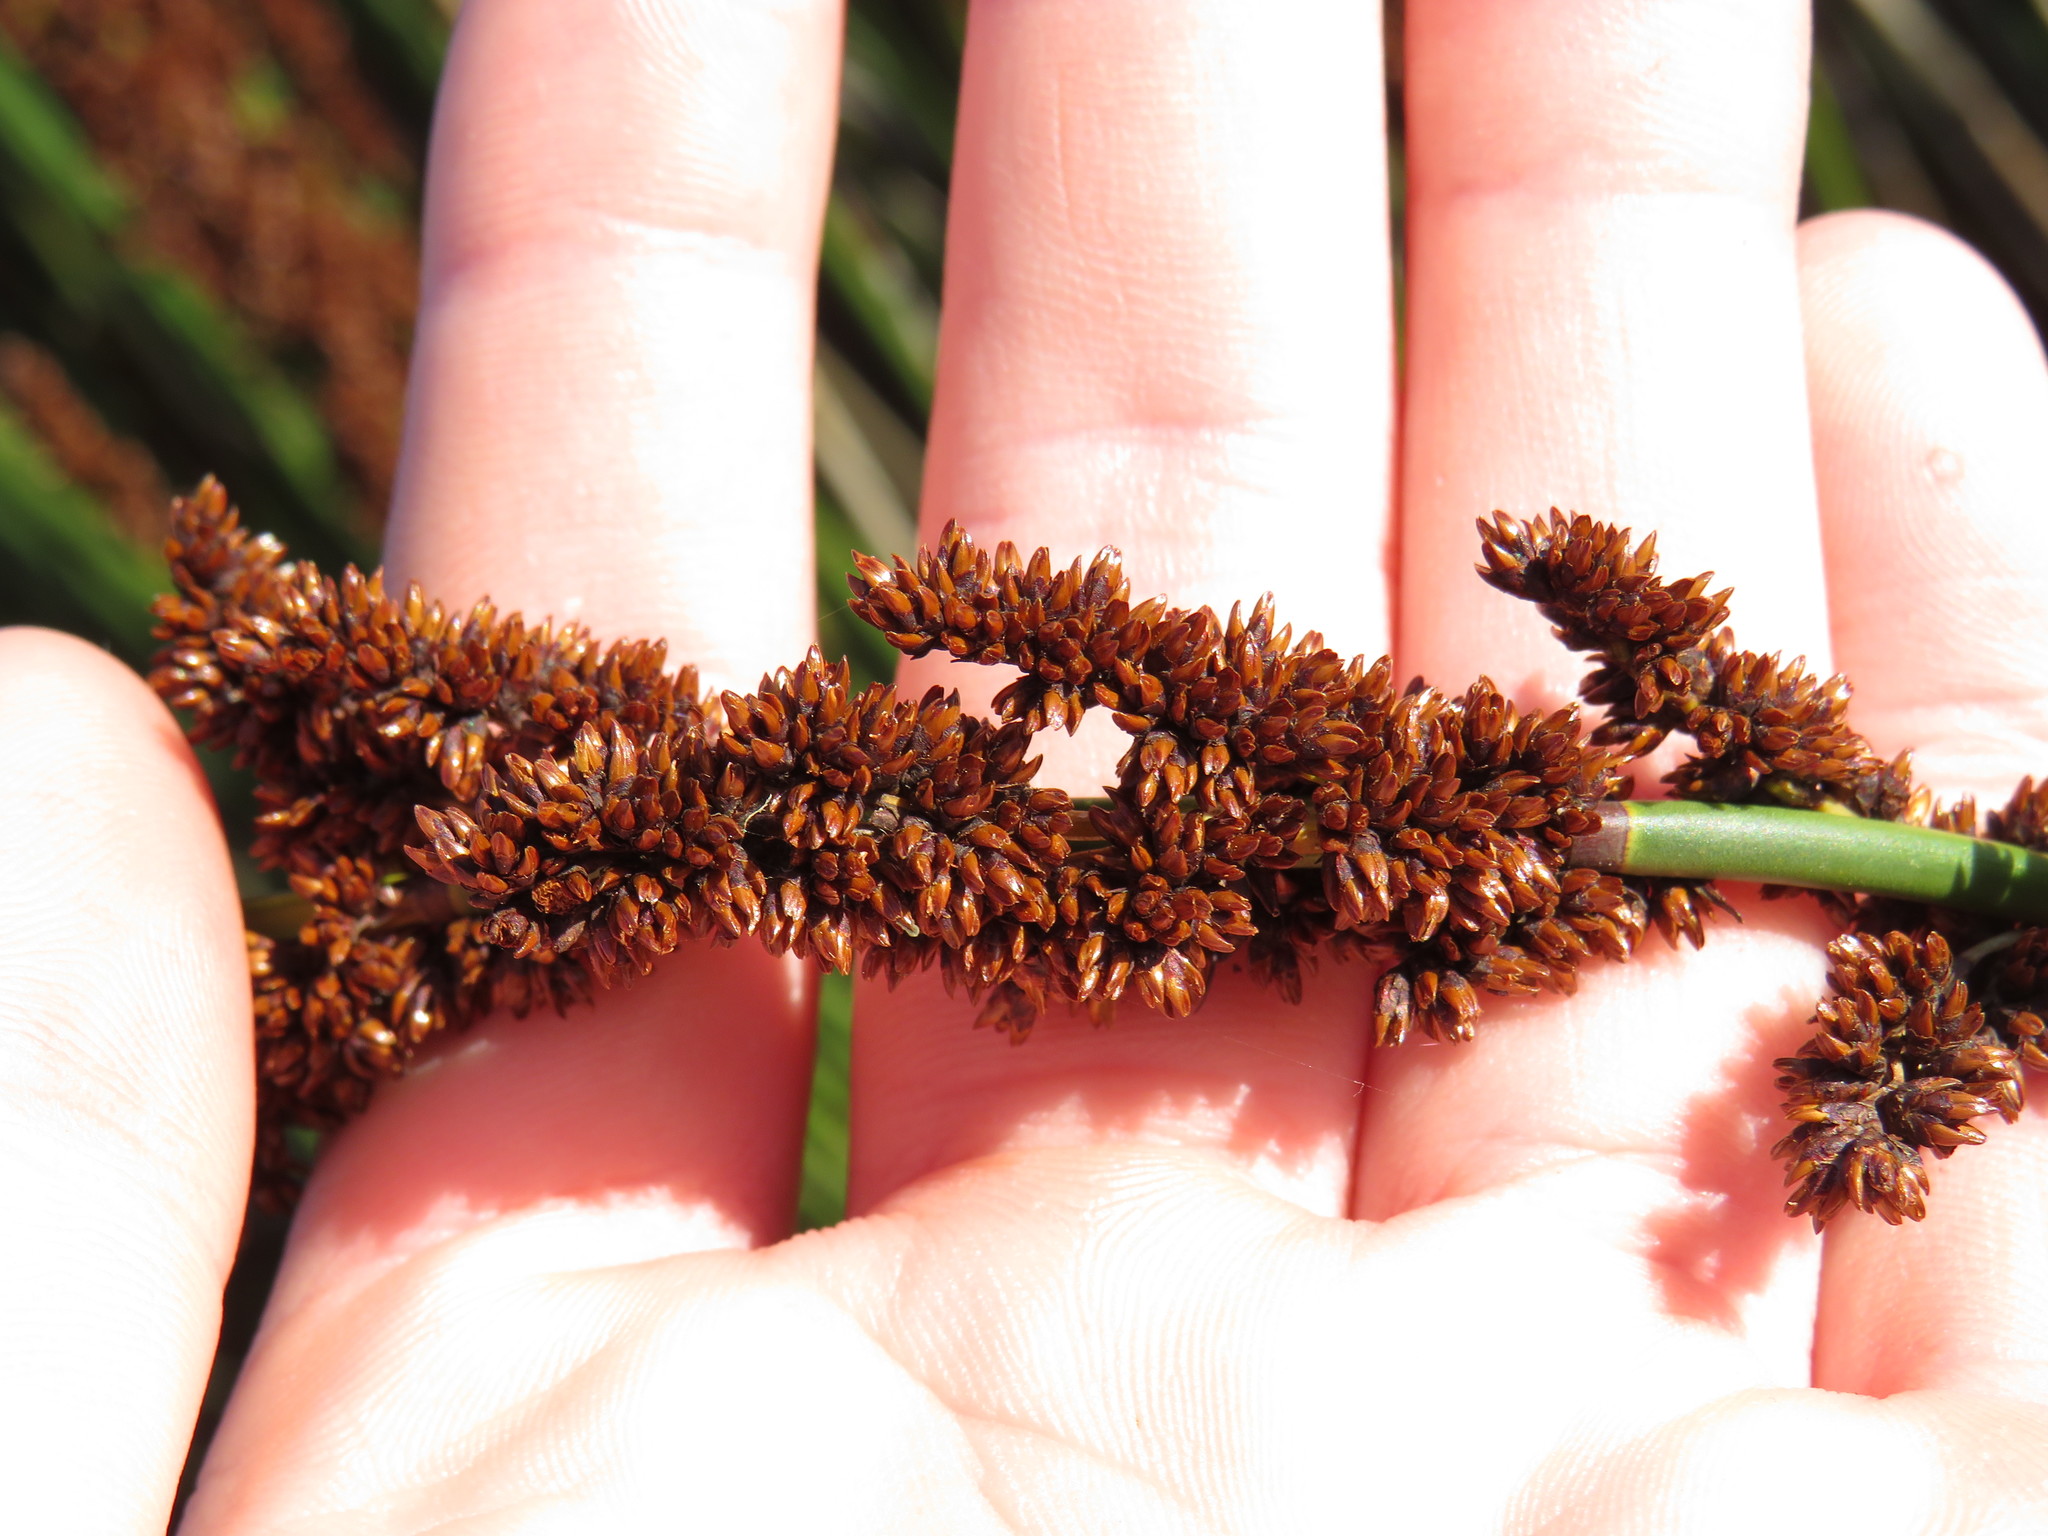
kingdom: Plantae
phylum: Tracheophyta
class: Liliopsida
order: Poales
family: Restionaceae
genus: Elegia
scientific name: Elegia tectorum
